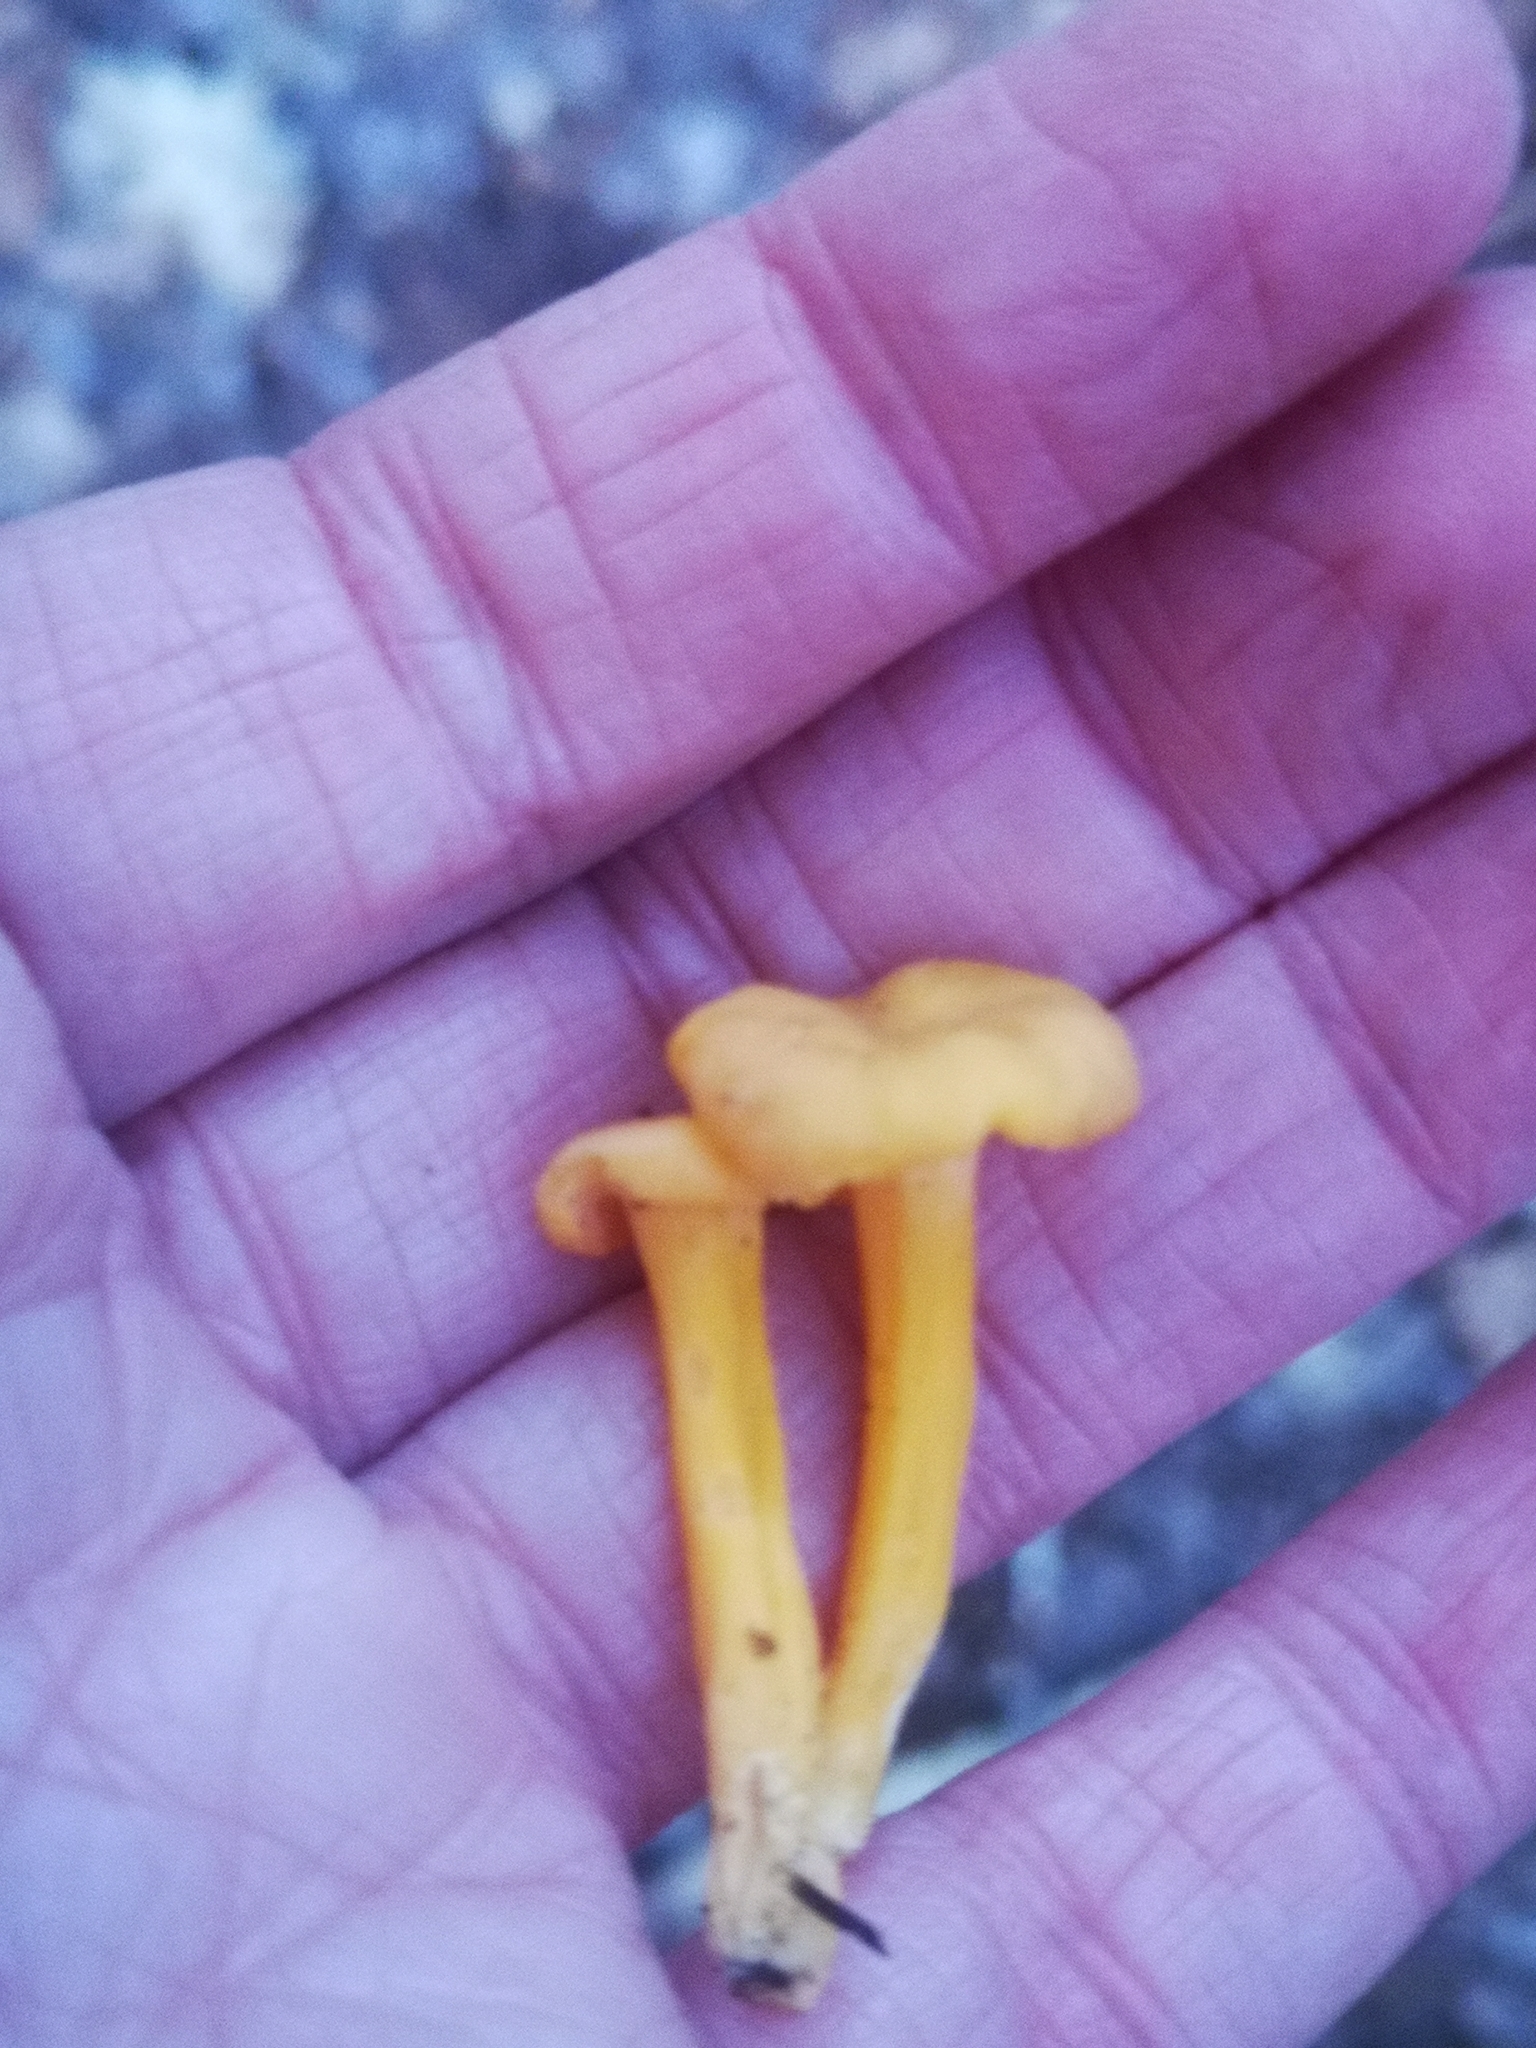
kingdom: Fungi
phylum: Basidiomycota
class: Agaricomycetes
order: Cantharellales
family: Hydnaceae
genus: Craterellus
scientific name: Craterellus ignicolor
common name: Flame chanterelle
